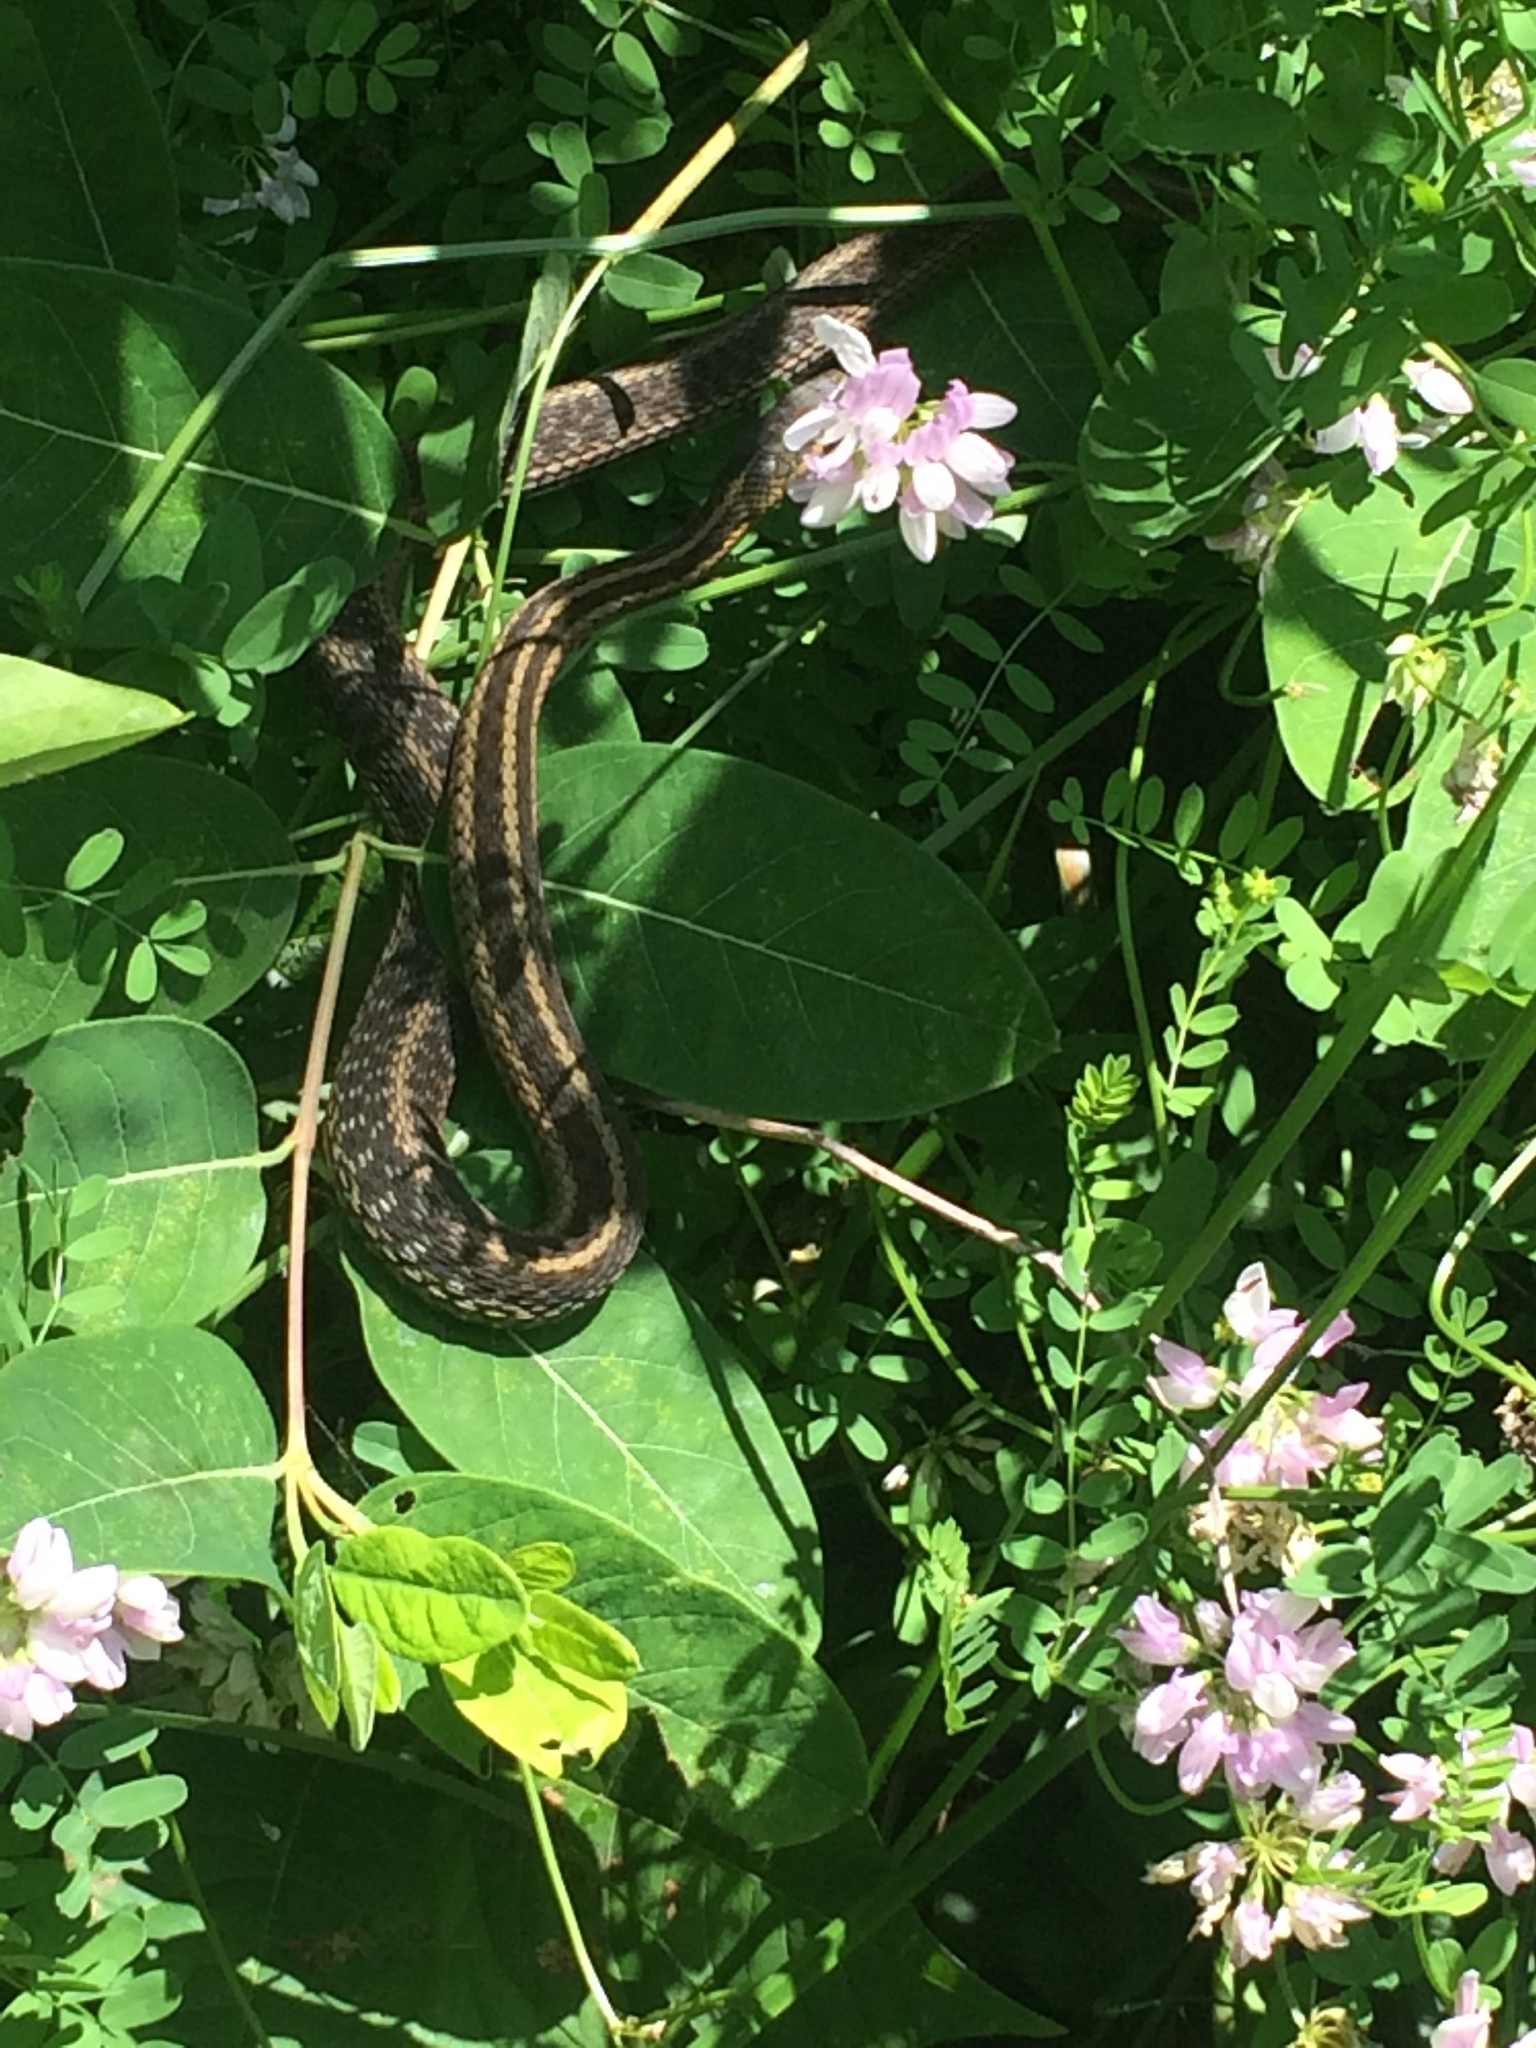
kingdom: Animalia
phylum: Chordata
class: Squamata
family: Colubridae
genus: Thamnophis
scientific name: Thamnophis sirtalis
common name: Common garter snake
